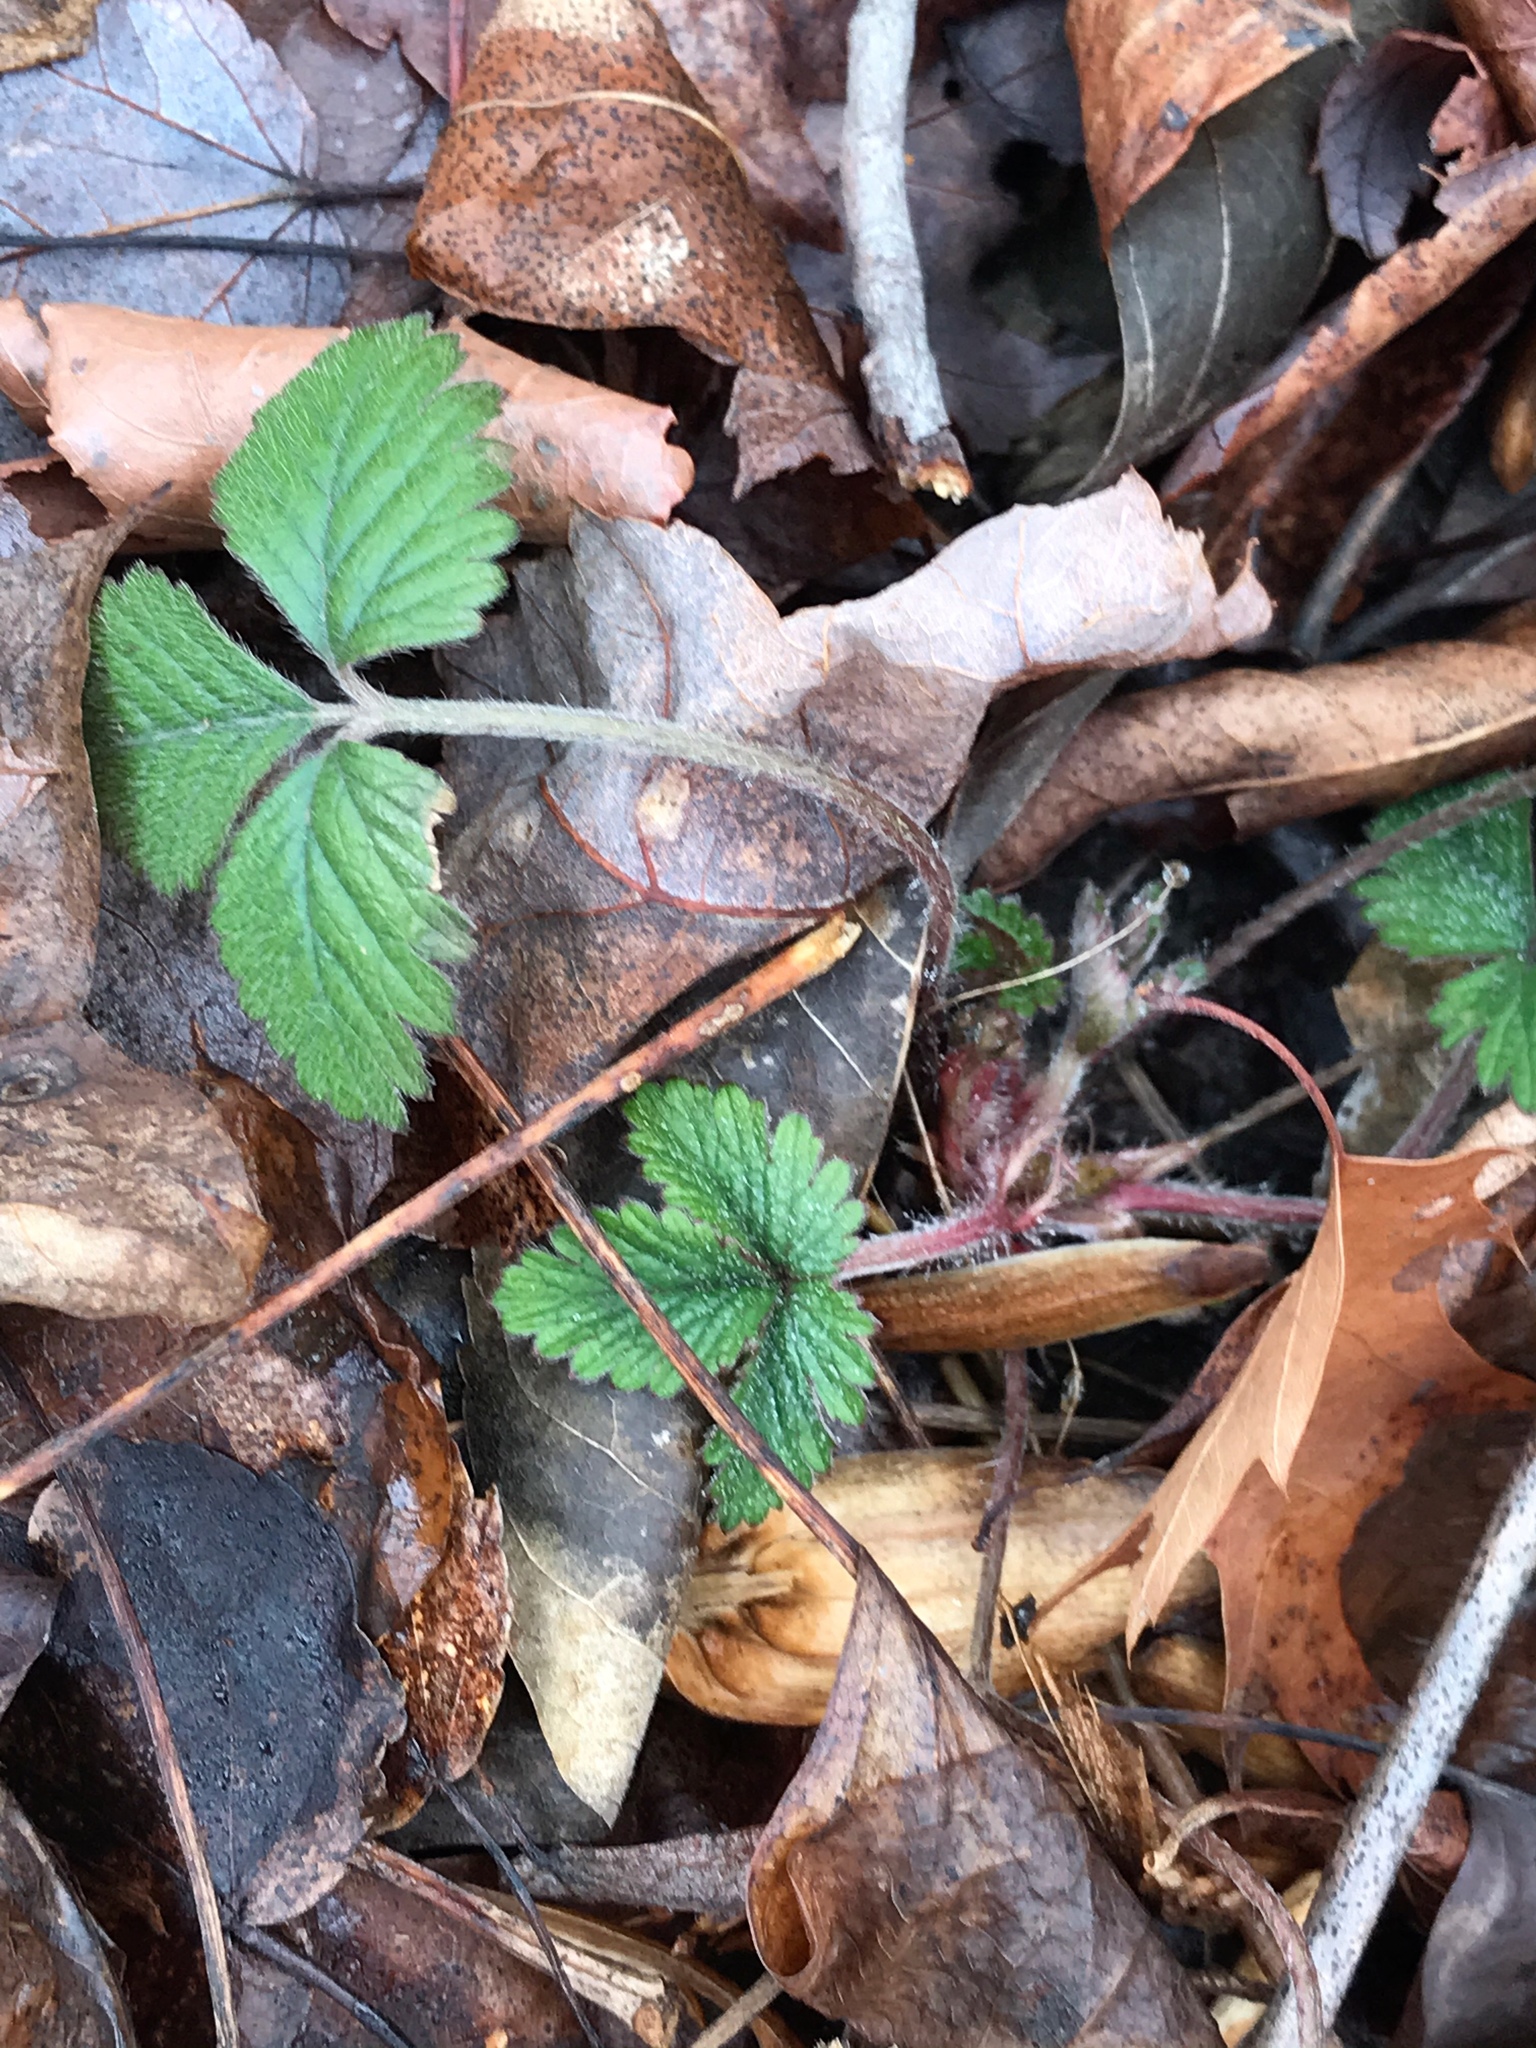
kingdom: Plantae
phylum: Tracheophyta
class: Magnoliopsida
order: Rosales
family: Rosaceae
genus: Potentilla
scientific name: Potentilla indica
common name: Yellow-flowered strawberry
